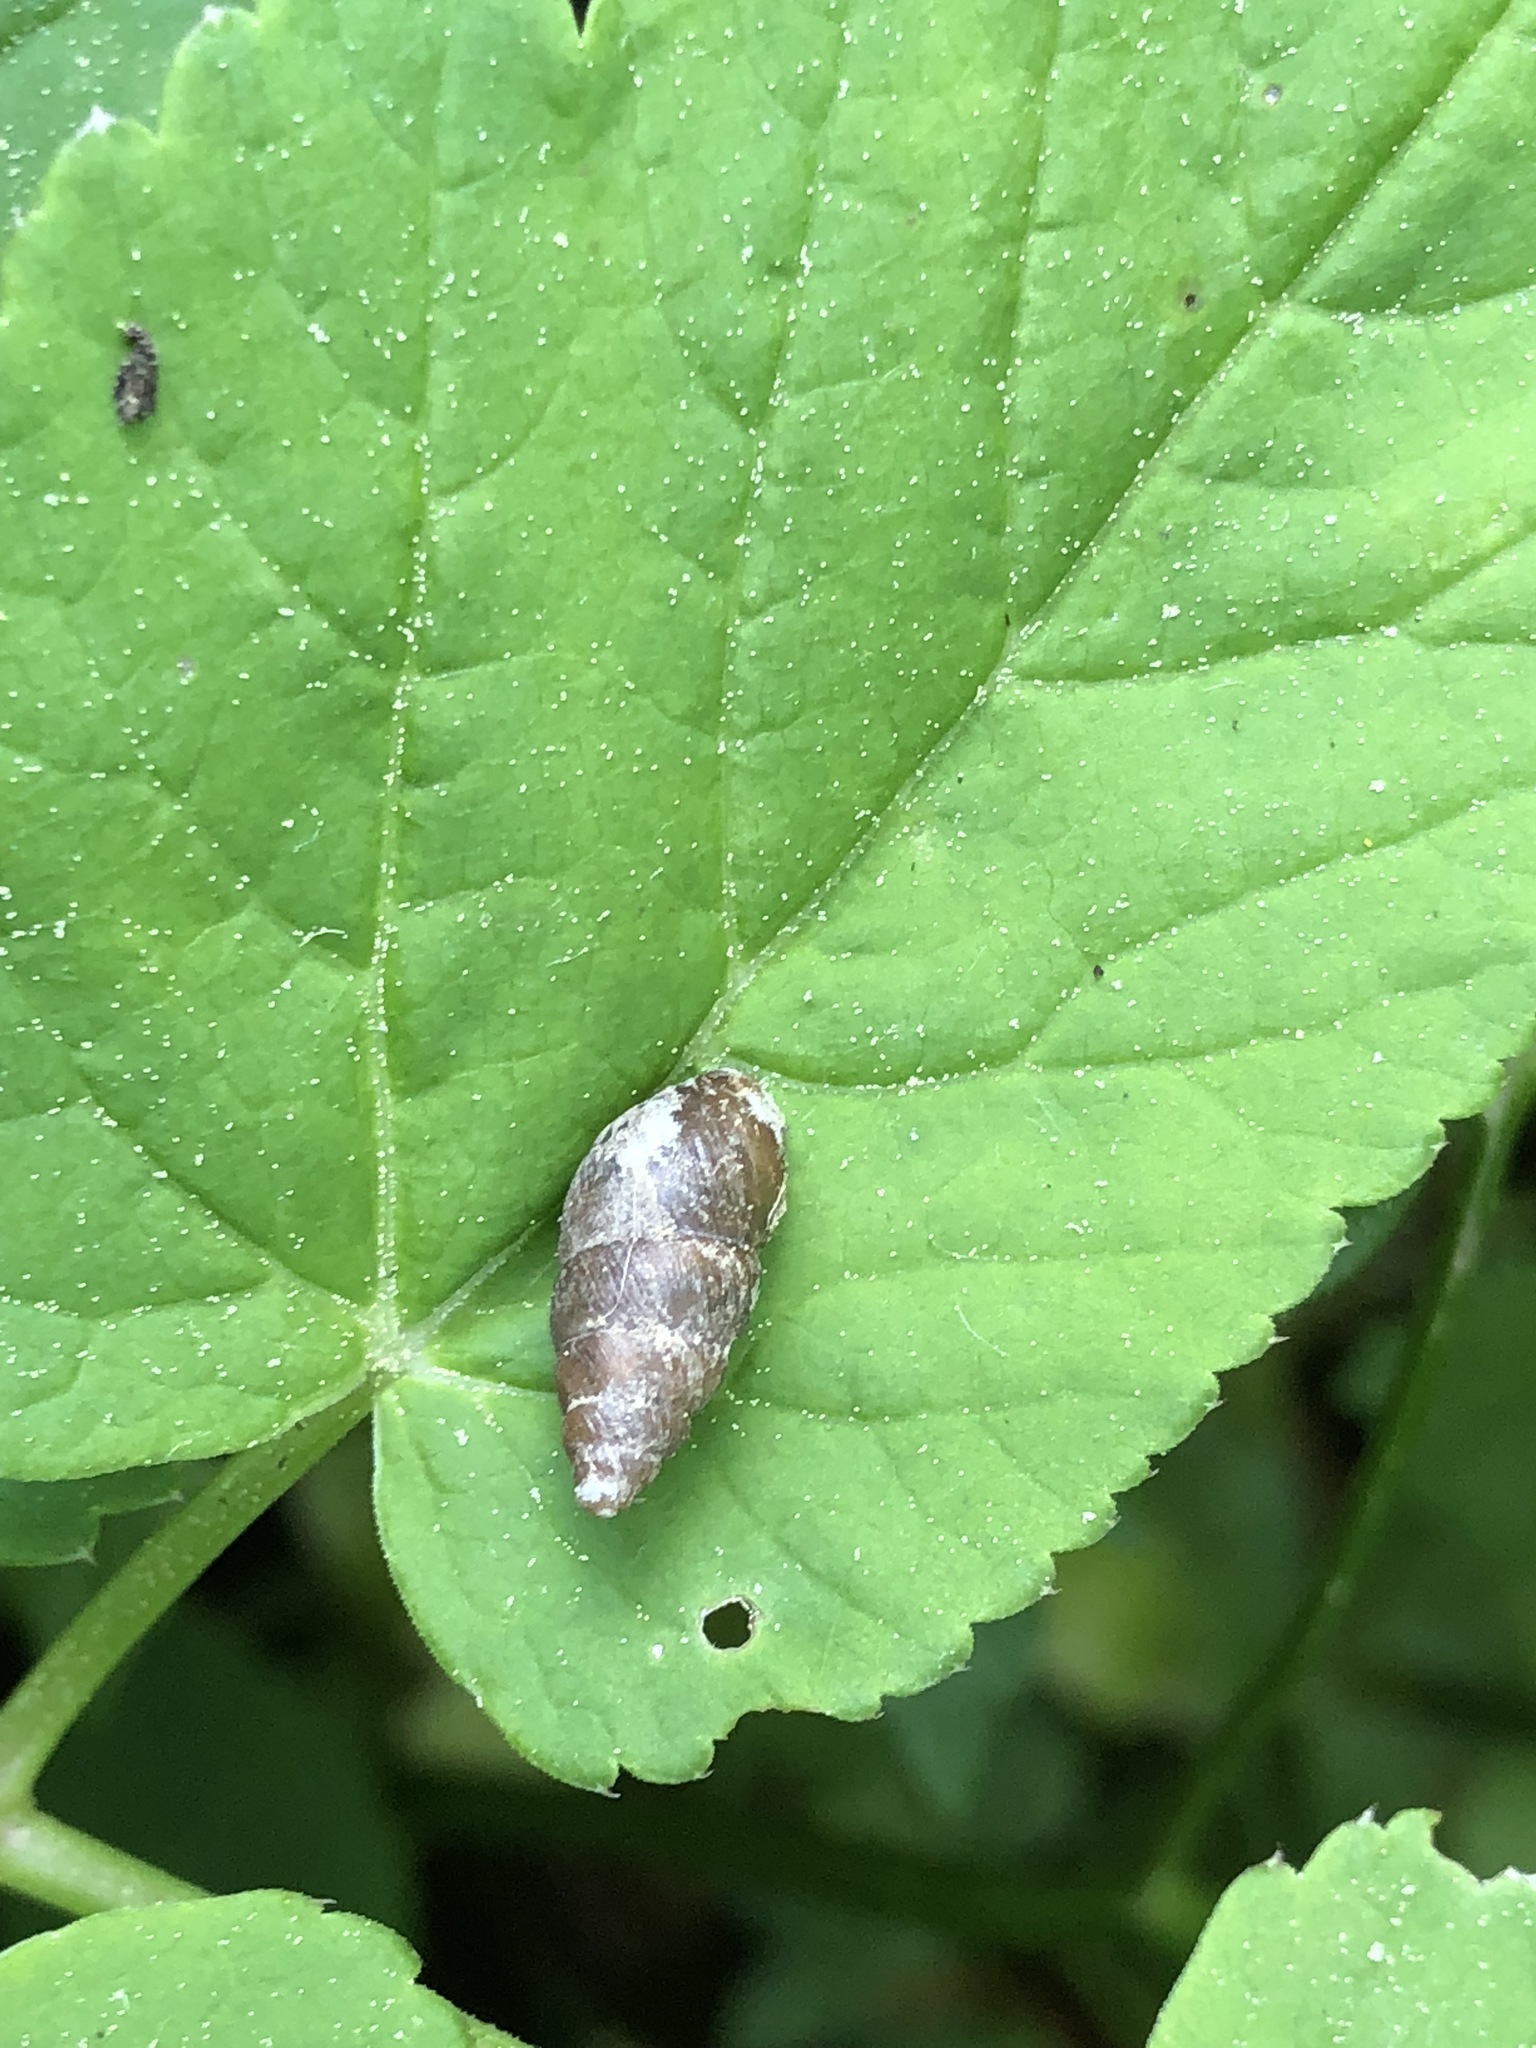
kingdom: Animalia
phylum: Mollusca
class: Gastropoda
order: Stylommatophora
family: Enidae
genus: Merdigera
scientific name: Merdigera obscura
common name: Lesser bulin
